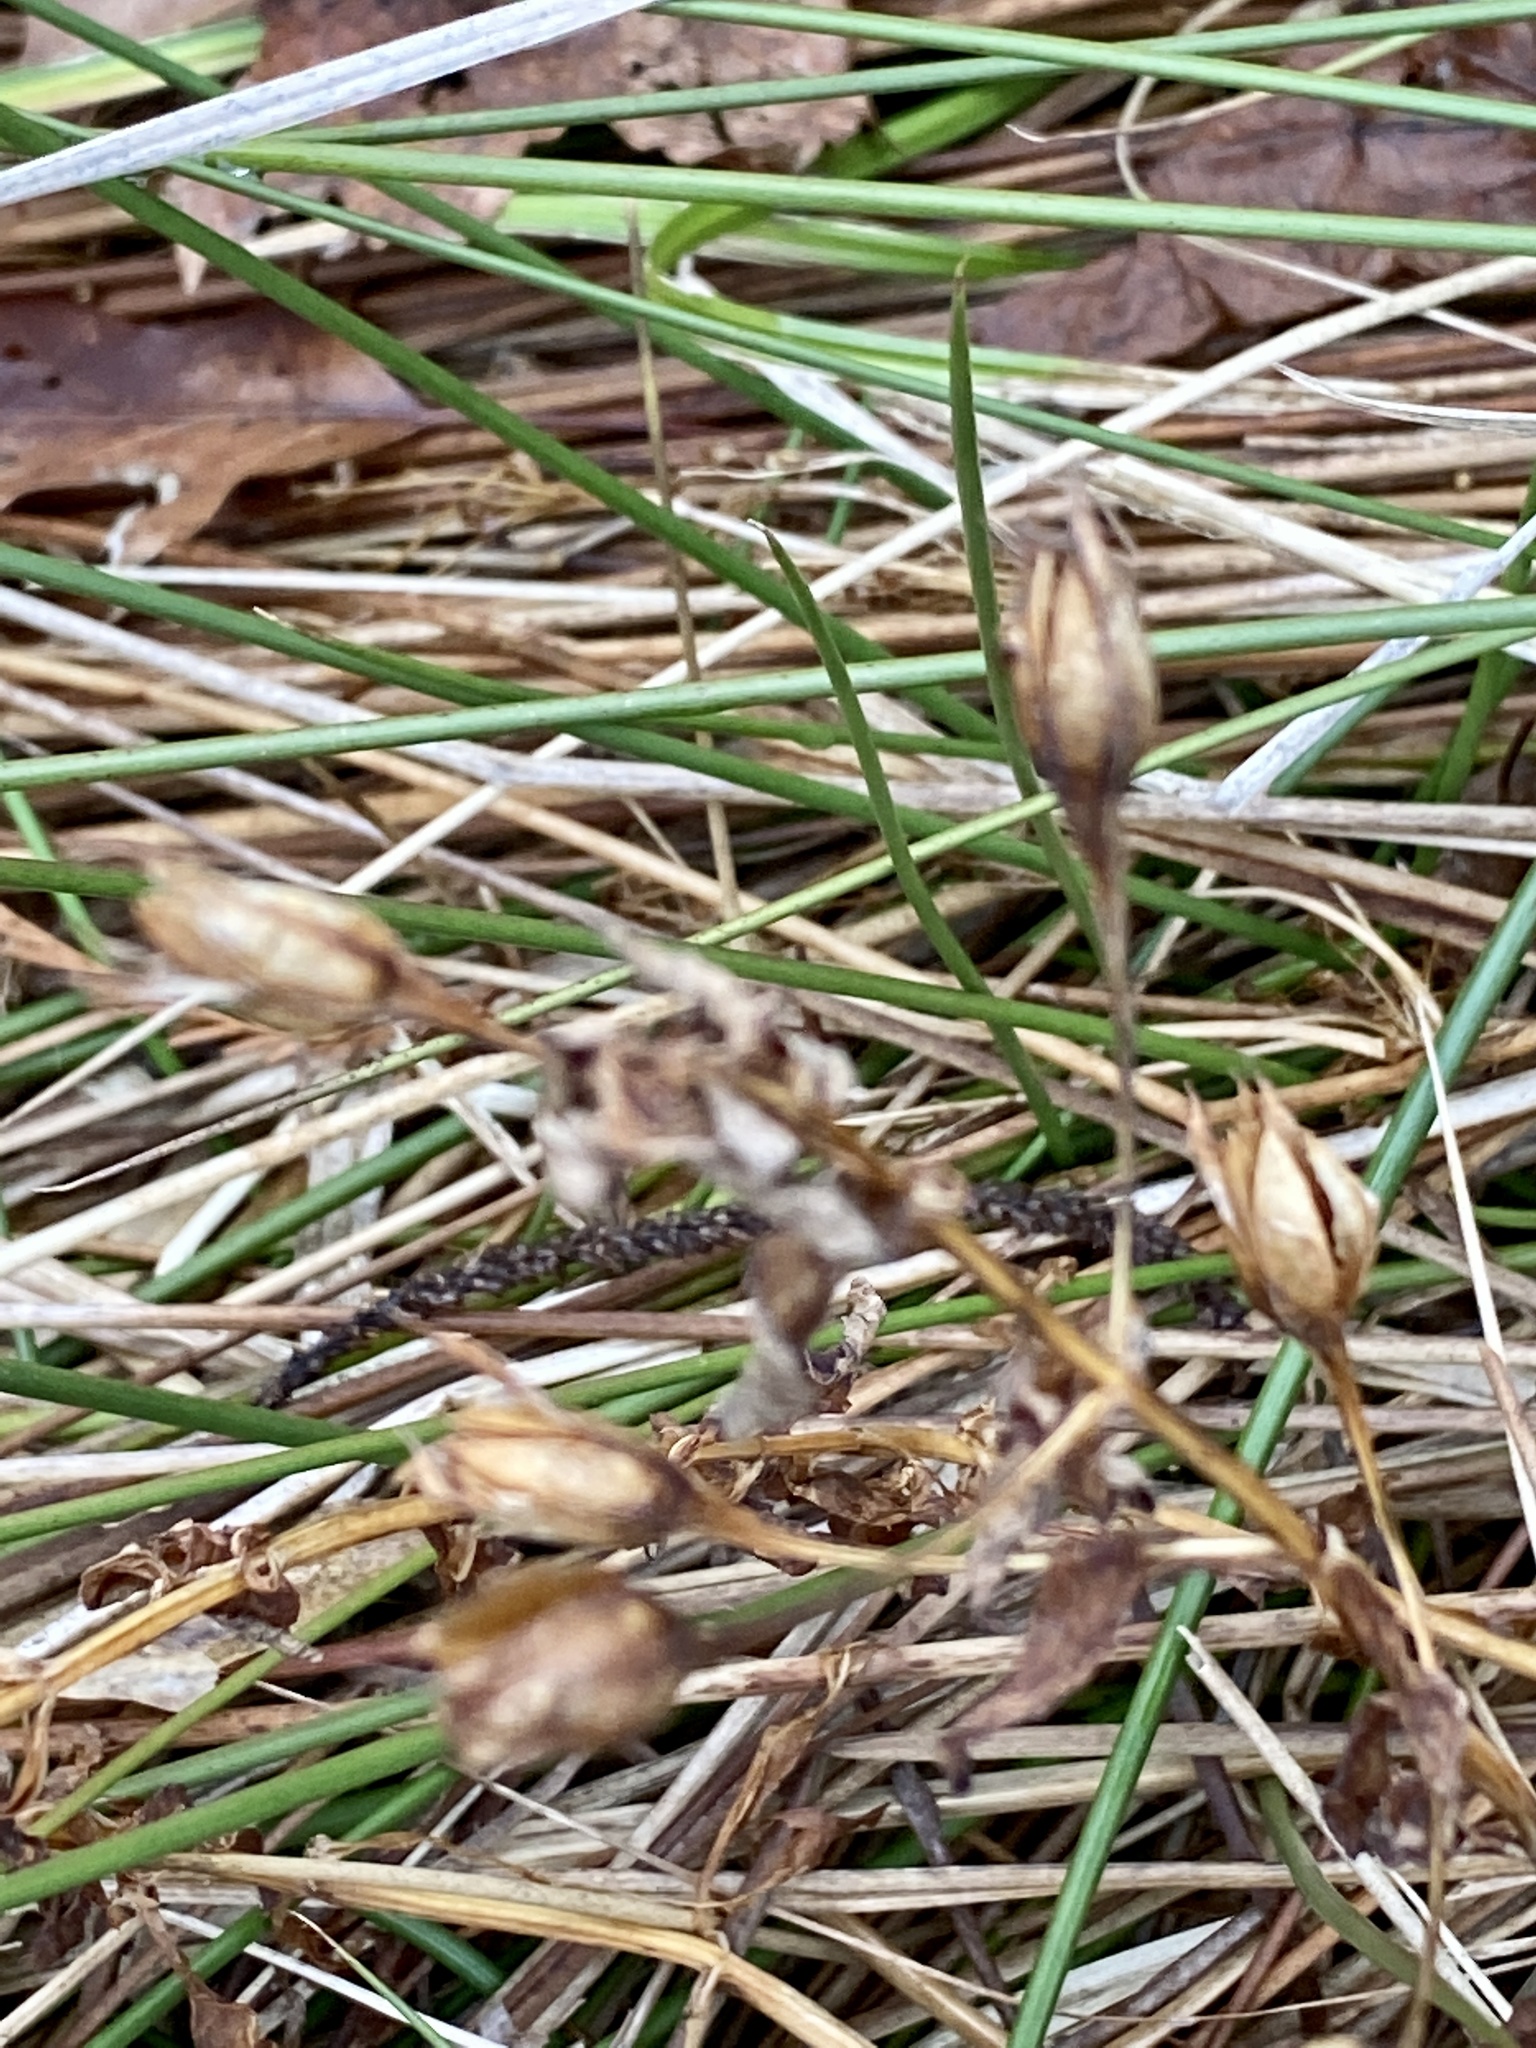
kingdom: Plantae
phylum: Tracheophyta
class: Magnoliopsida
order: Lamiales
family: Phrymaceae
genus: Mimulus
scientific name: Mimulus ringens
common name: Allegheny monkeyflower
